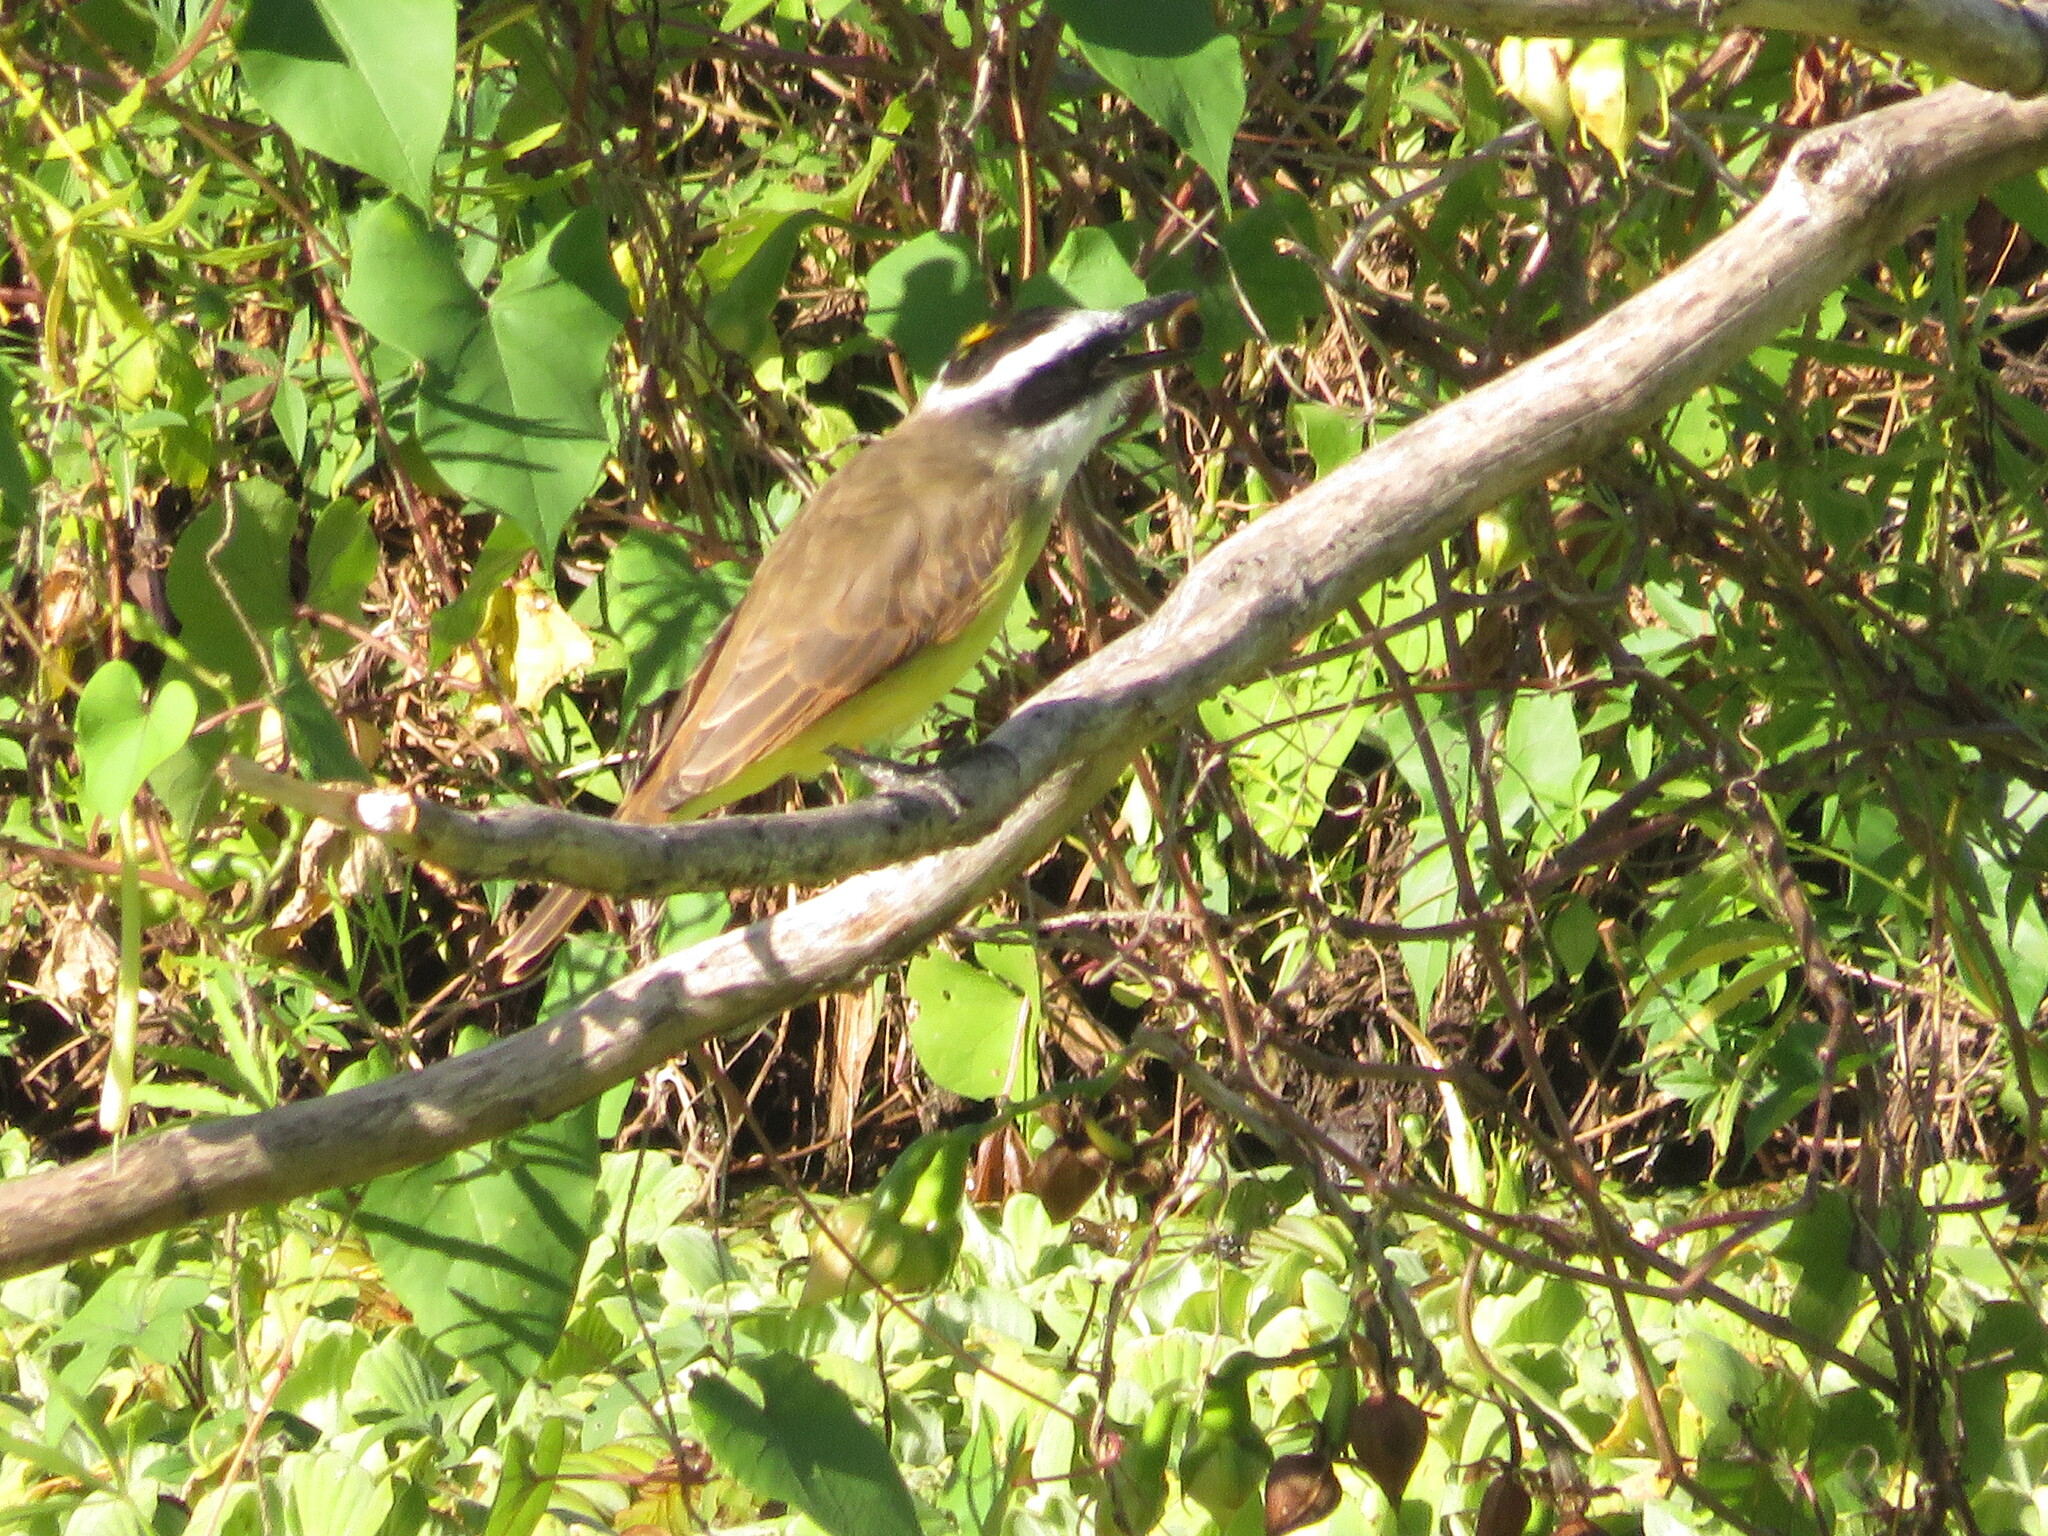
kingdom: Animalia
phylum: Chordata
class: Aves
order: Passeriformes
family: Tyrannidae
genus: Pitangus
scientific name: Pitangus sulphuratus
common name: Great kiskadee
